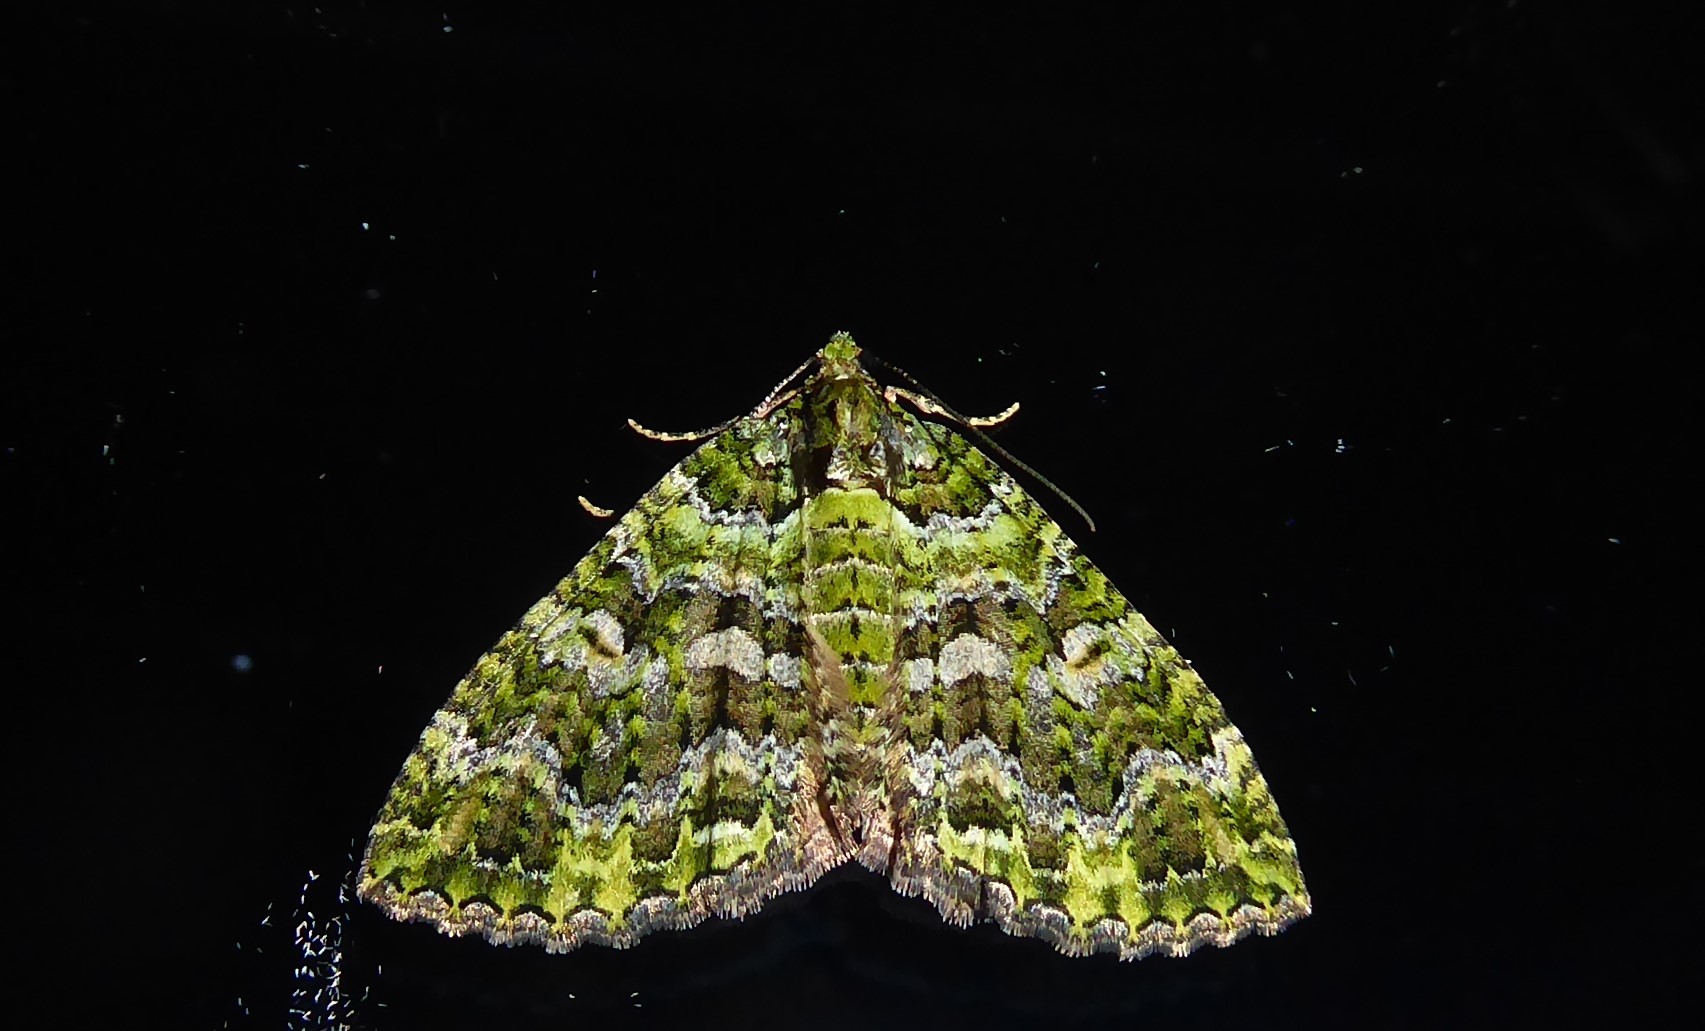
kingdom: Animalia
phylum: Arthropoda
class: Insecta
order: Lepidoptera
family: Geometridae
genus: Austrocidaria
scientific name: Austrocidaria similata
